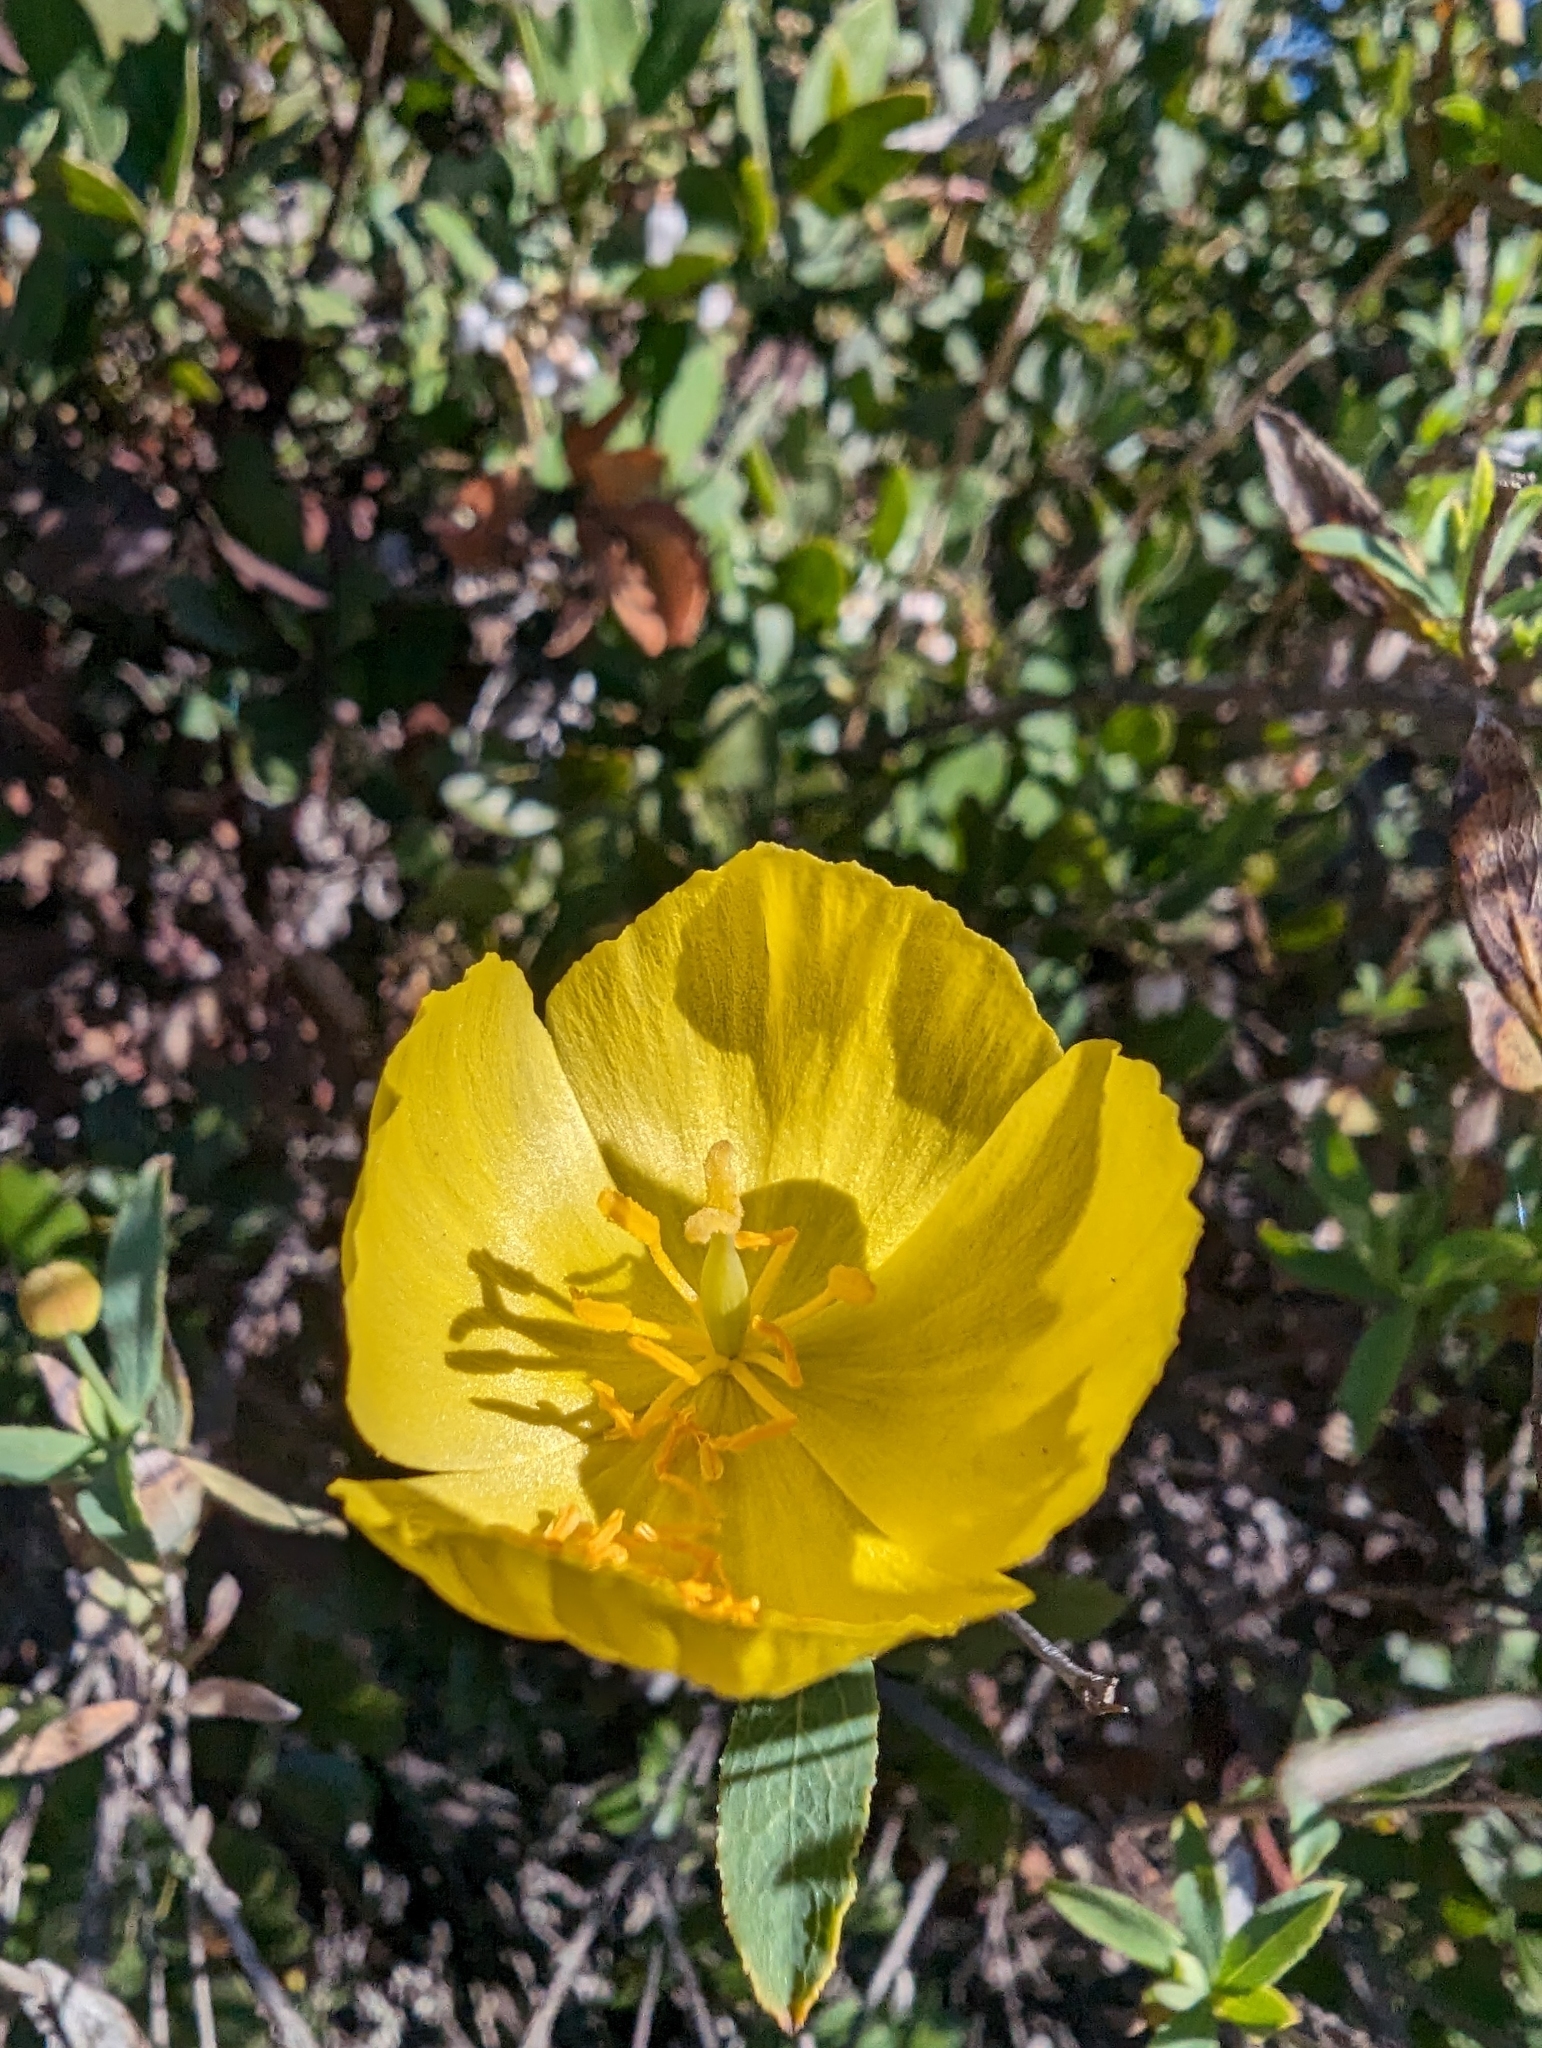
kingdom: Plantae
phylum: Tracheophyta
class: Magnoliopsida
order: Ranunculales
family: Papaveraceae
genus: Dendromecon
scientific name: Dendromecon rigida
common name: Tree poppy
